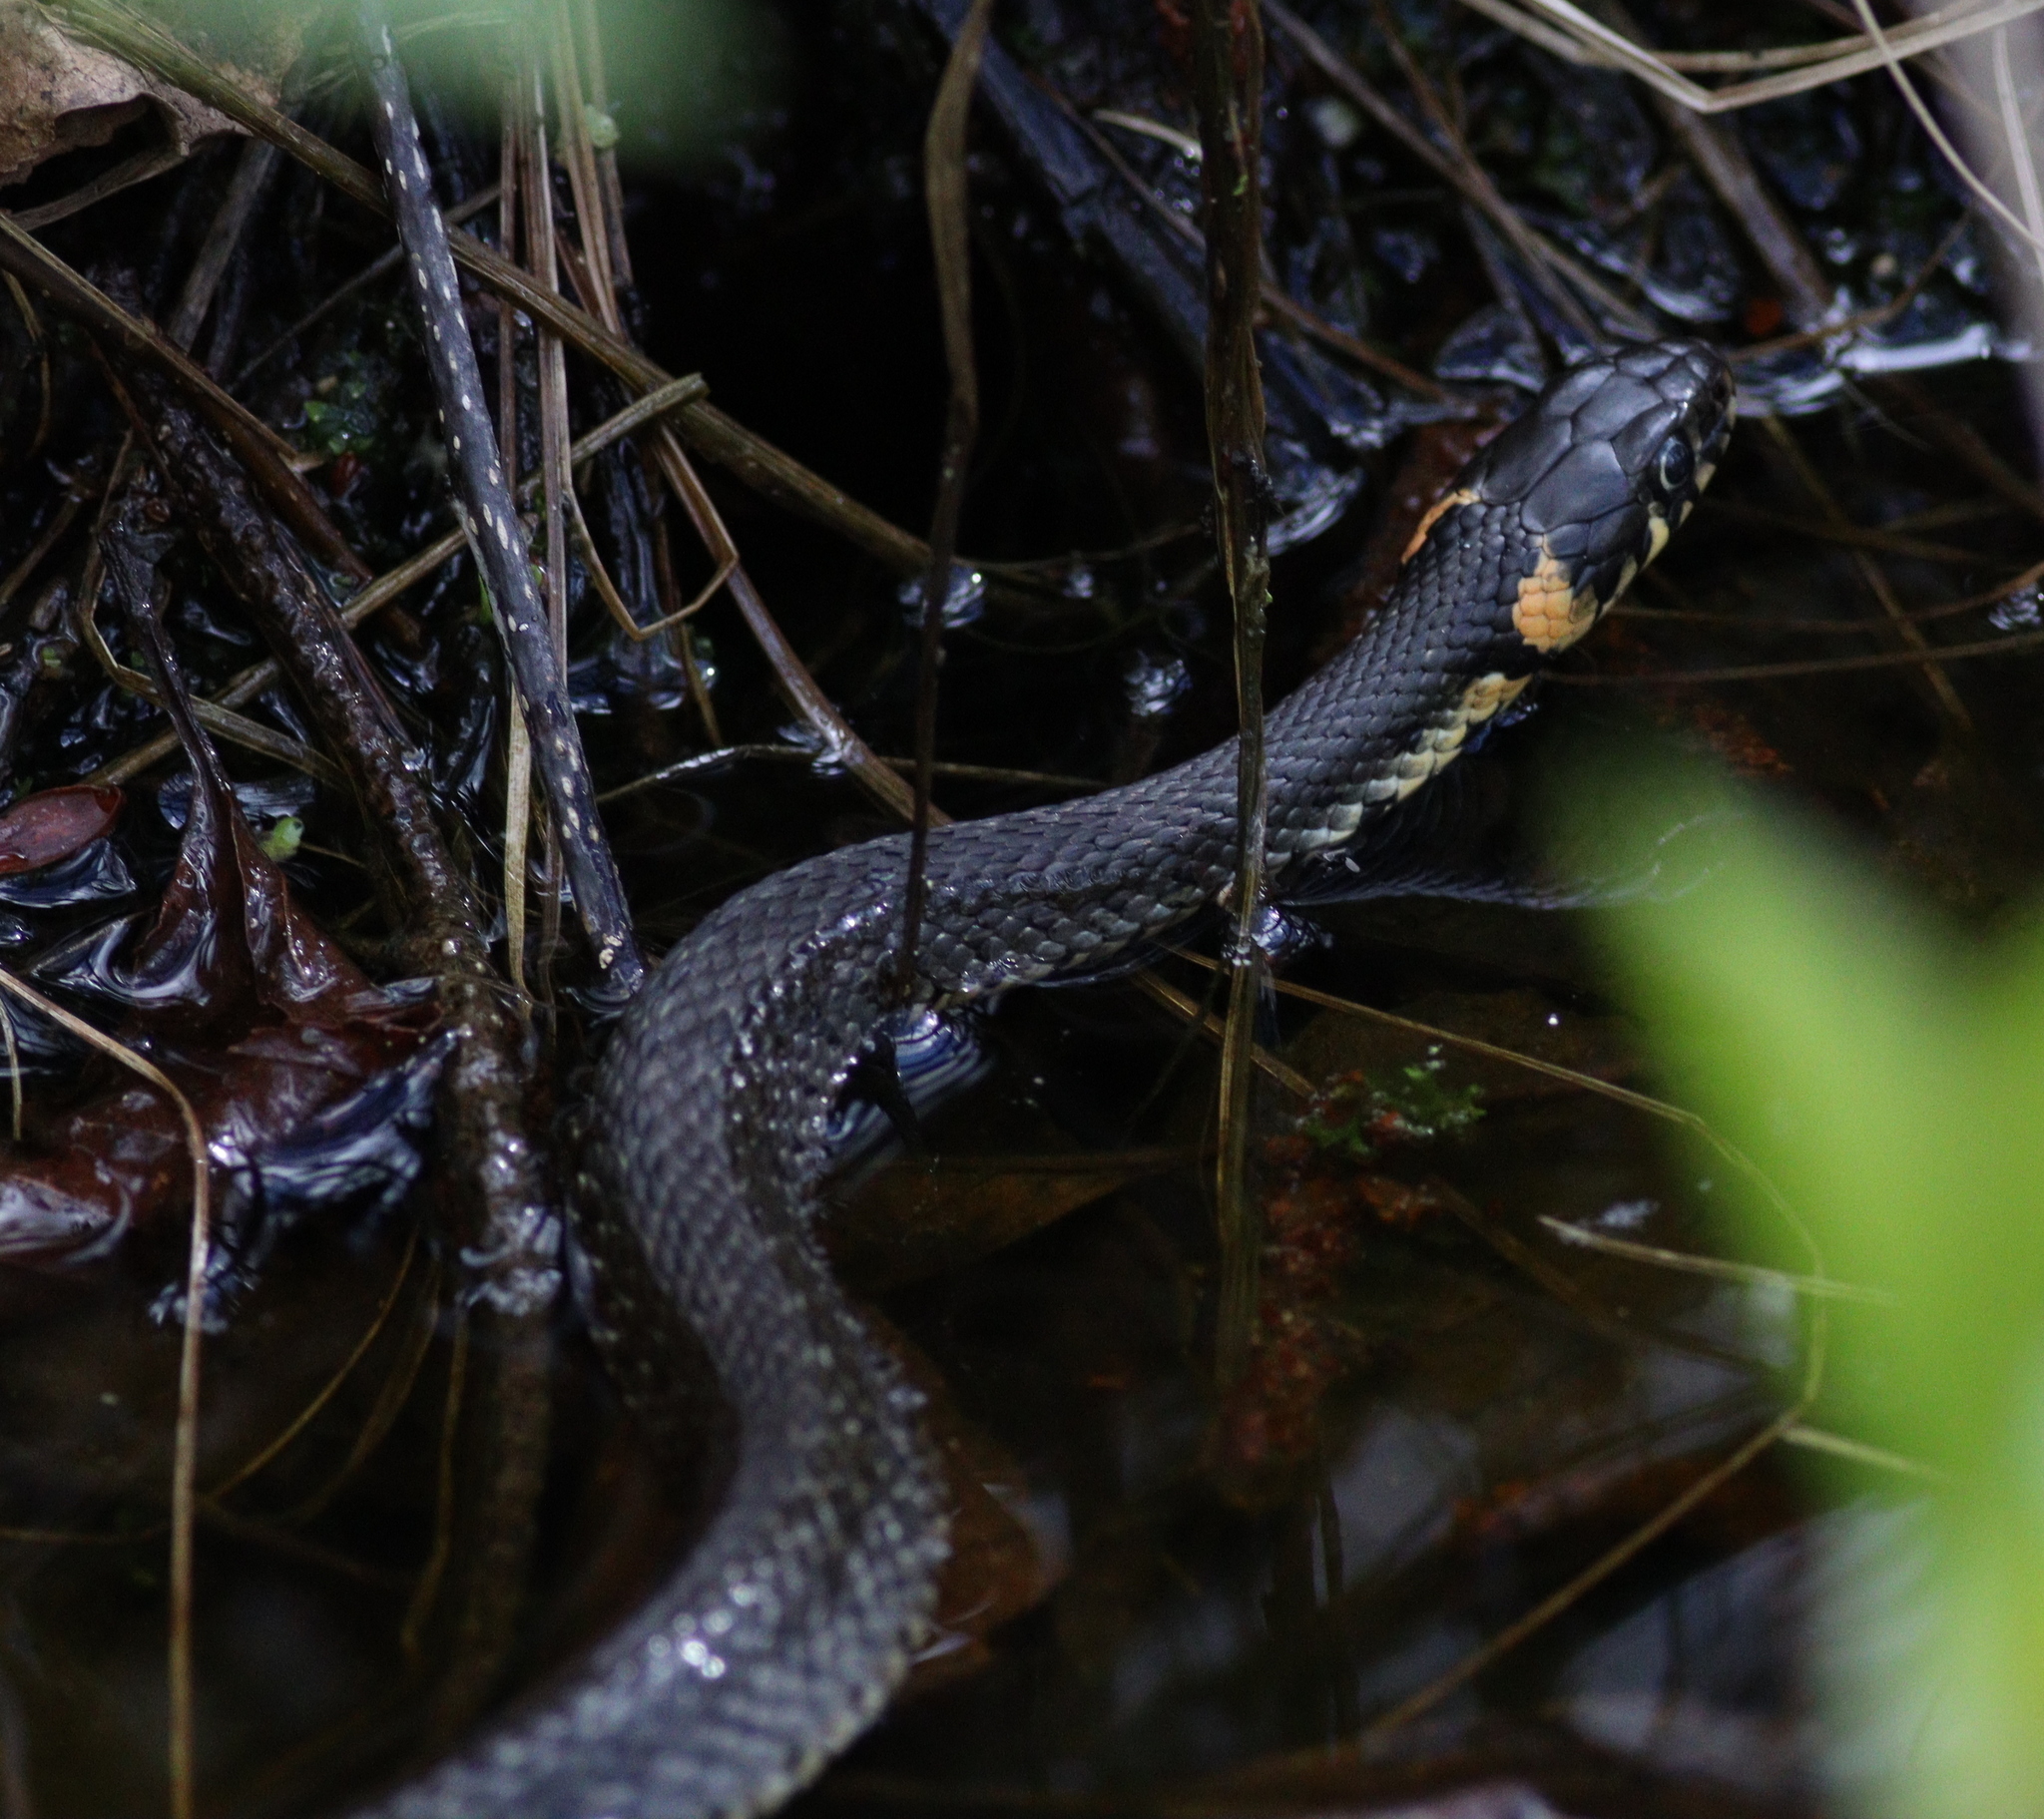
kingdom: Animalia
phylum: Chordata
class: Squamata
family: Colubridae
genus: Natrix
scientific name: Natrix natrix
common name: Grass snake
